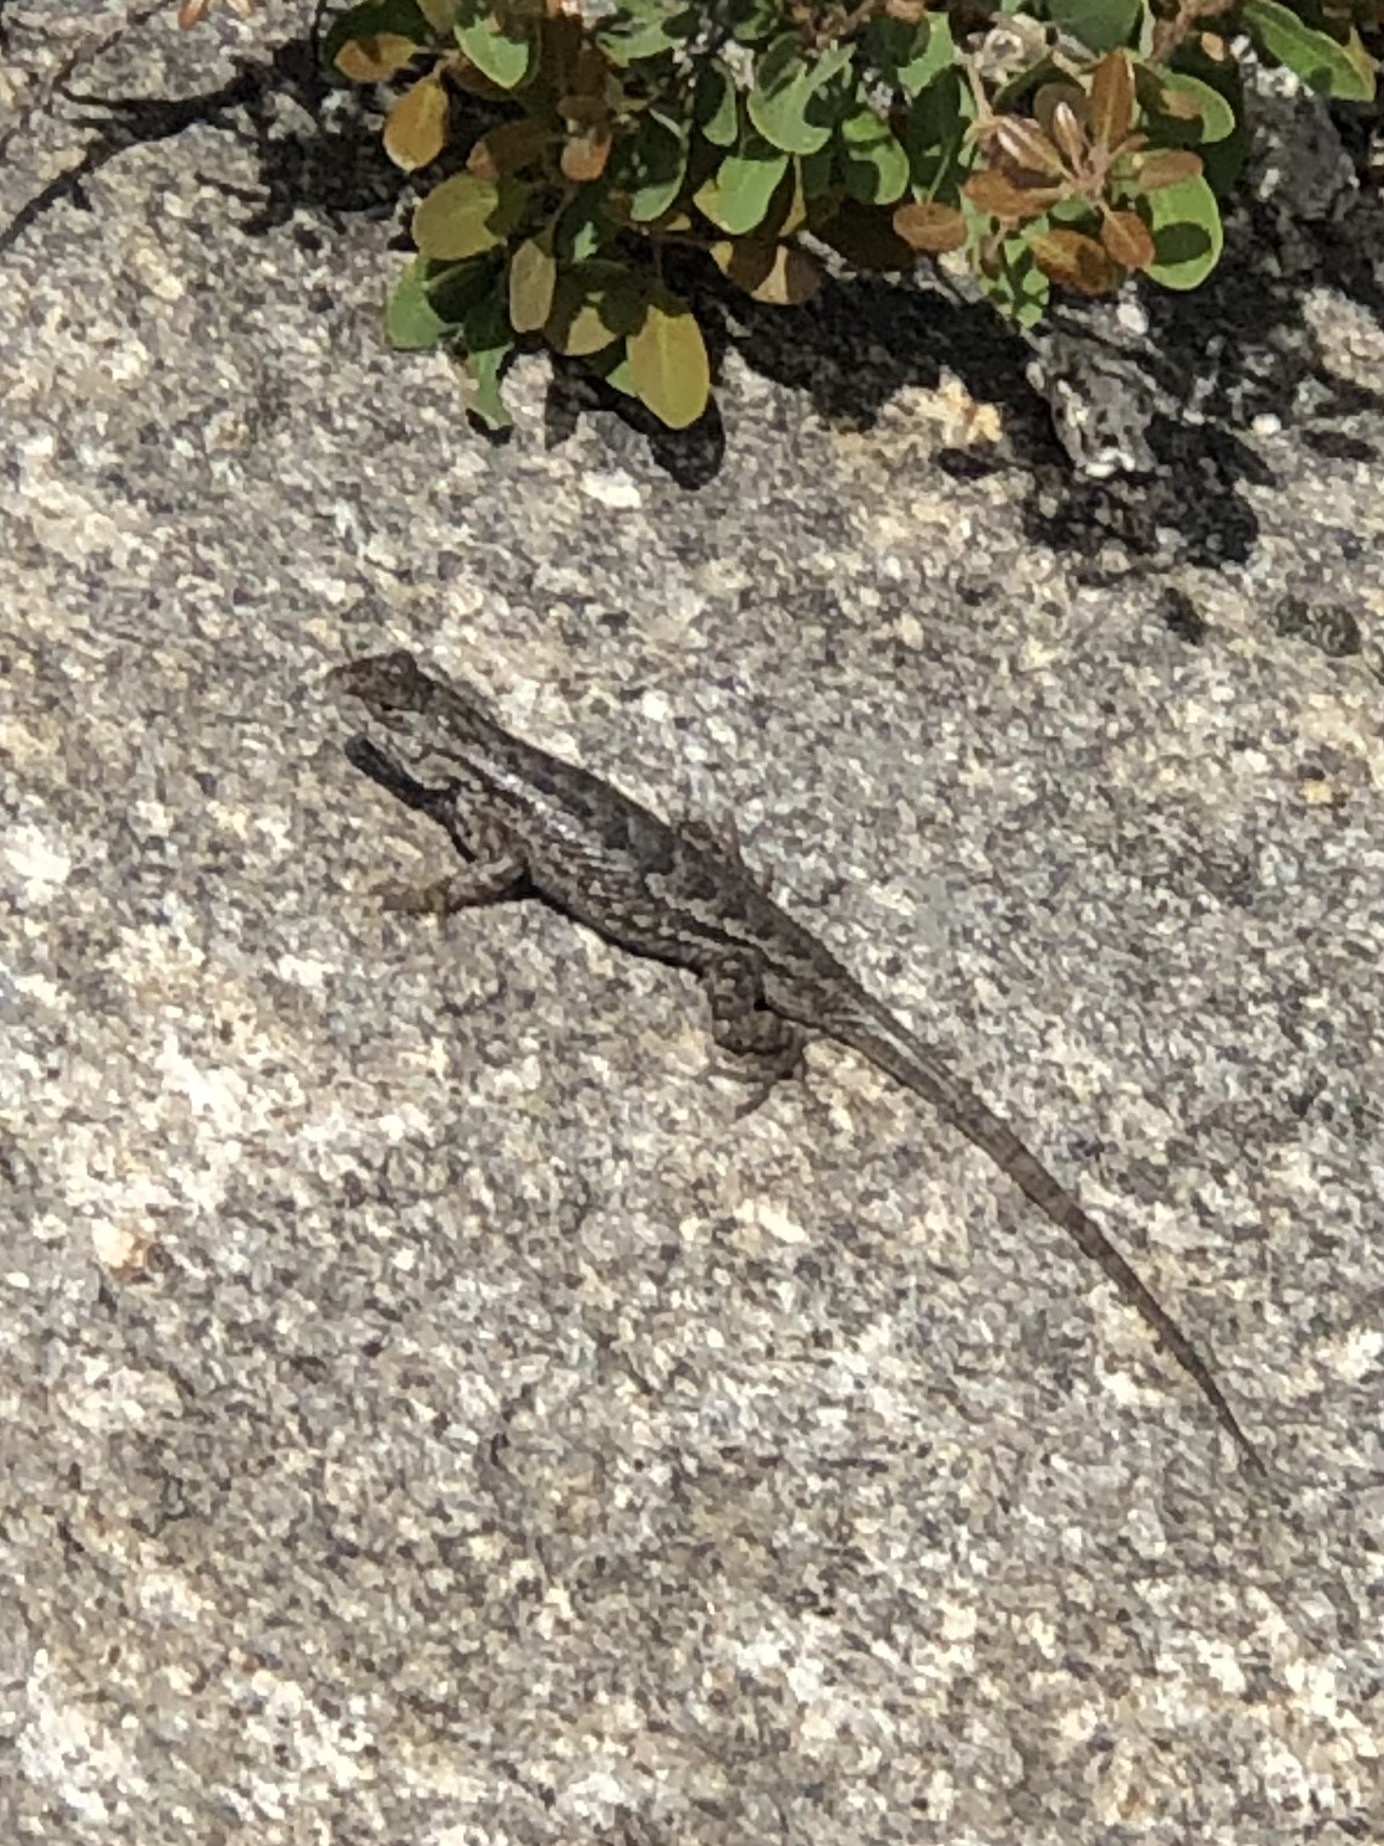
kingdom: Animalia
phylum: Chordata
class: Squamata
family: Phrynosomatidae
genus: Sceloporus
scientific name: Sceloporus occidentalis
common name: Western fence lizard
